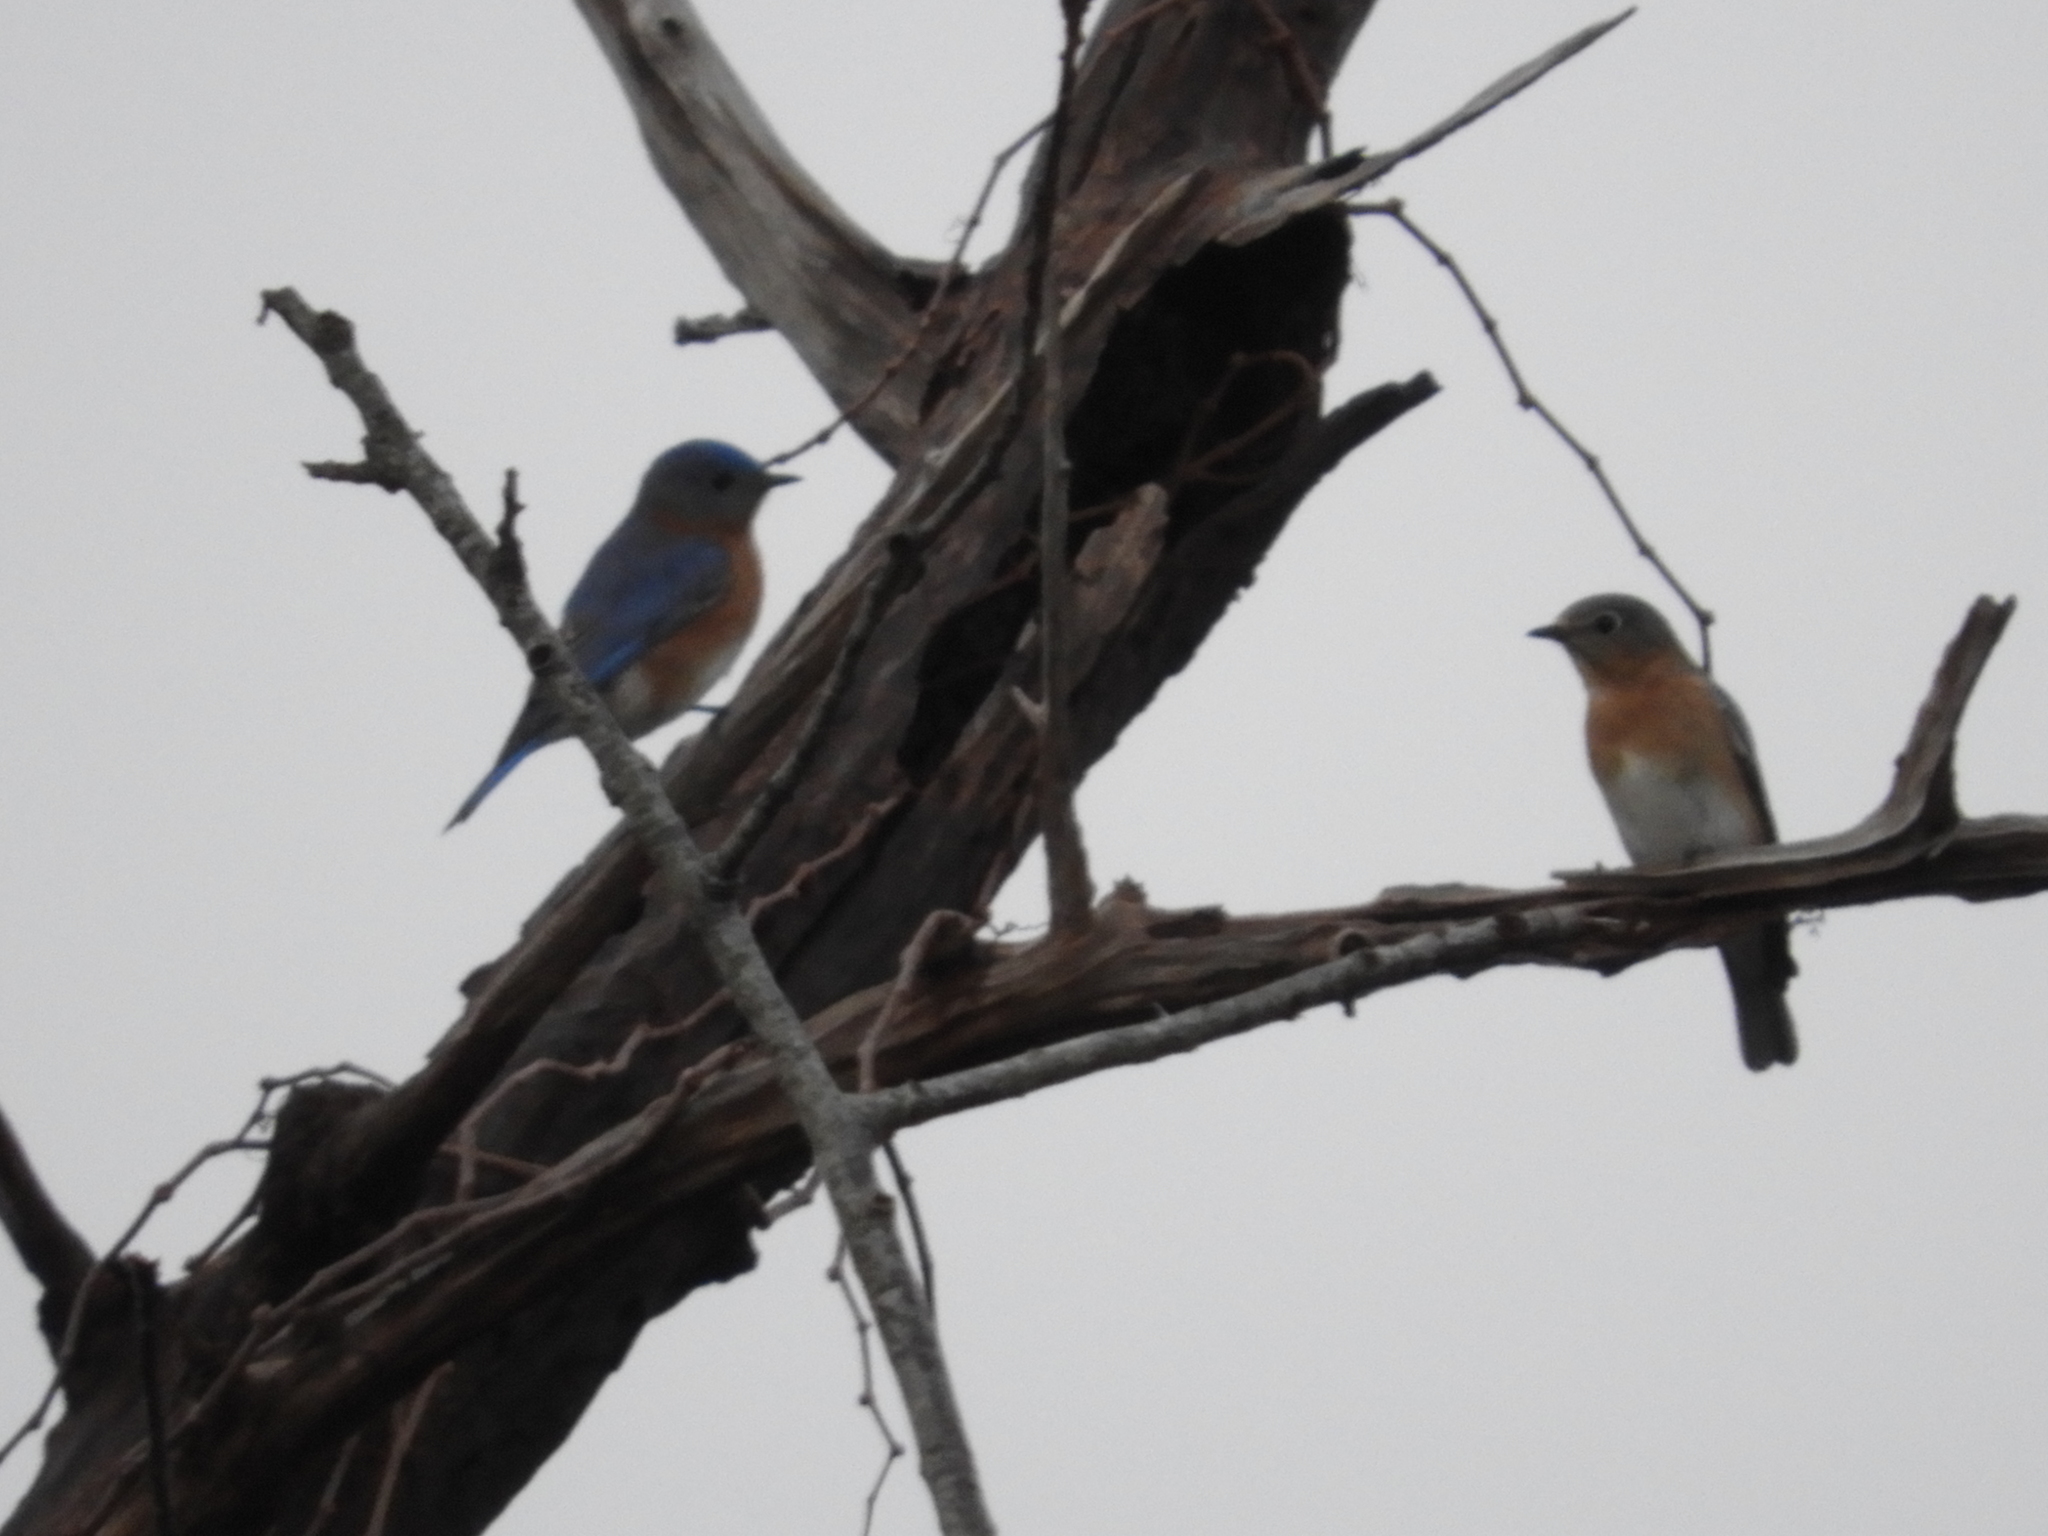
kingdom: Animalia
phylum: Chordata
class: Aves
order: Passeriformes
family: Turdidae
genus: Sialia
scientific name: Sialia sialis
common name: Eastern bluebird
